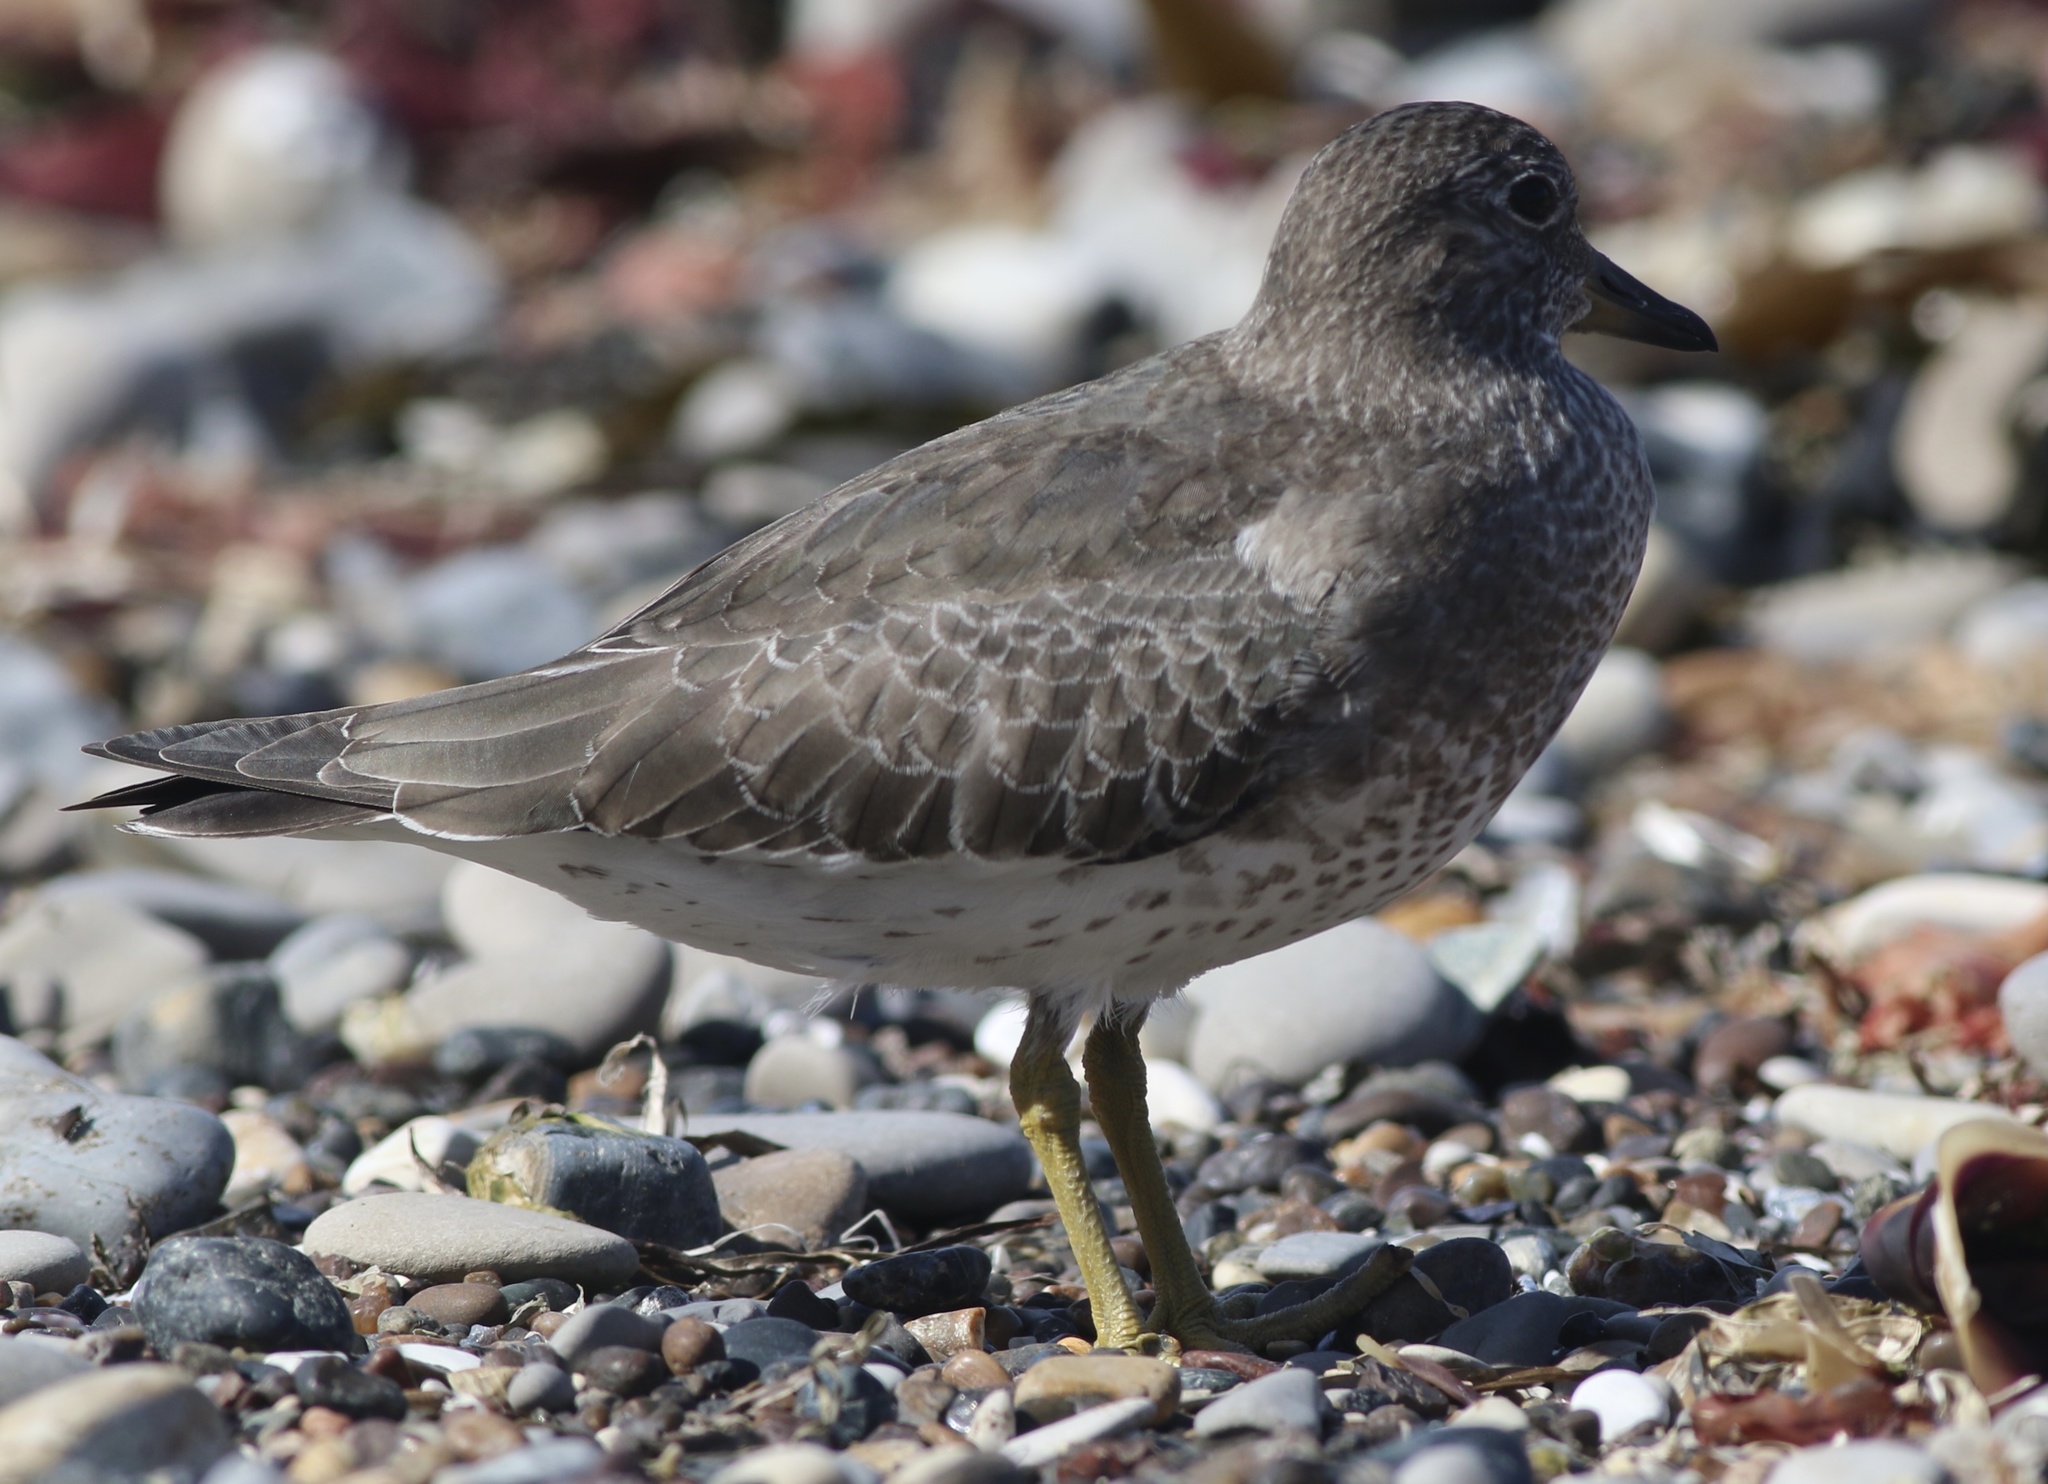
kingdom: Animalia
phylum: Chordata
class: Aves
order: Charadriiformes
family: Scolopacidae
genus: Calidris
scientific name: Calidris virgata
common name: Surfbird
